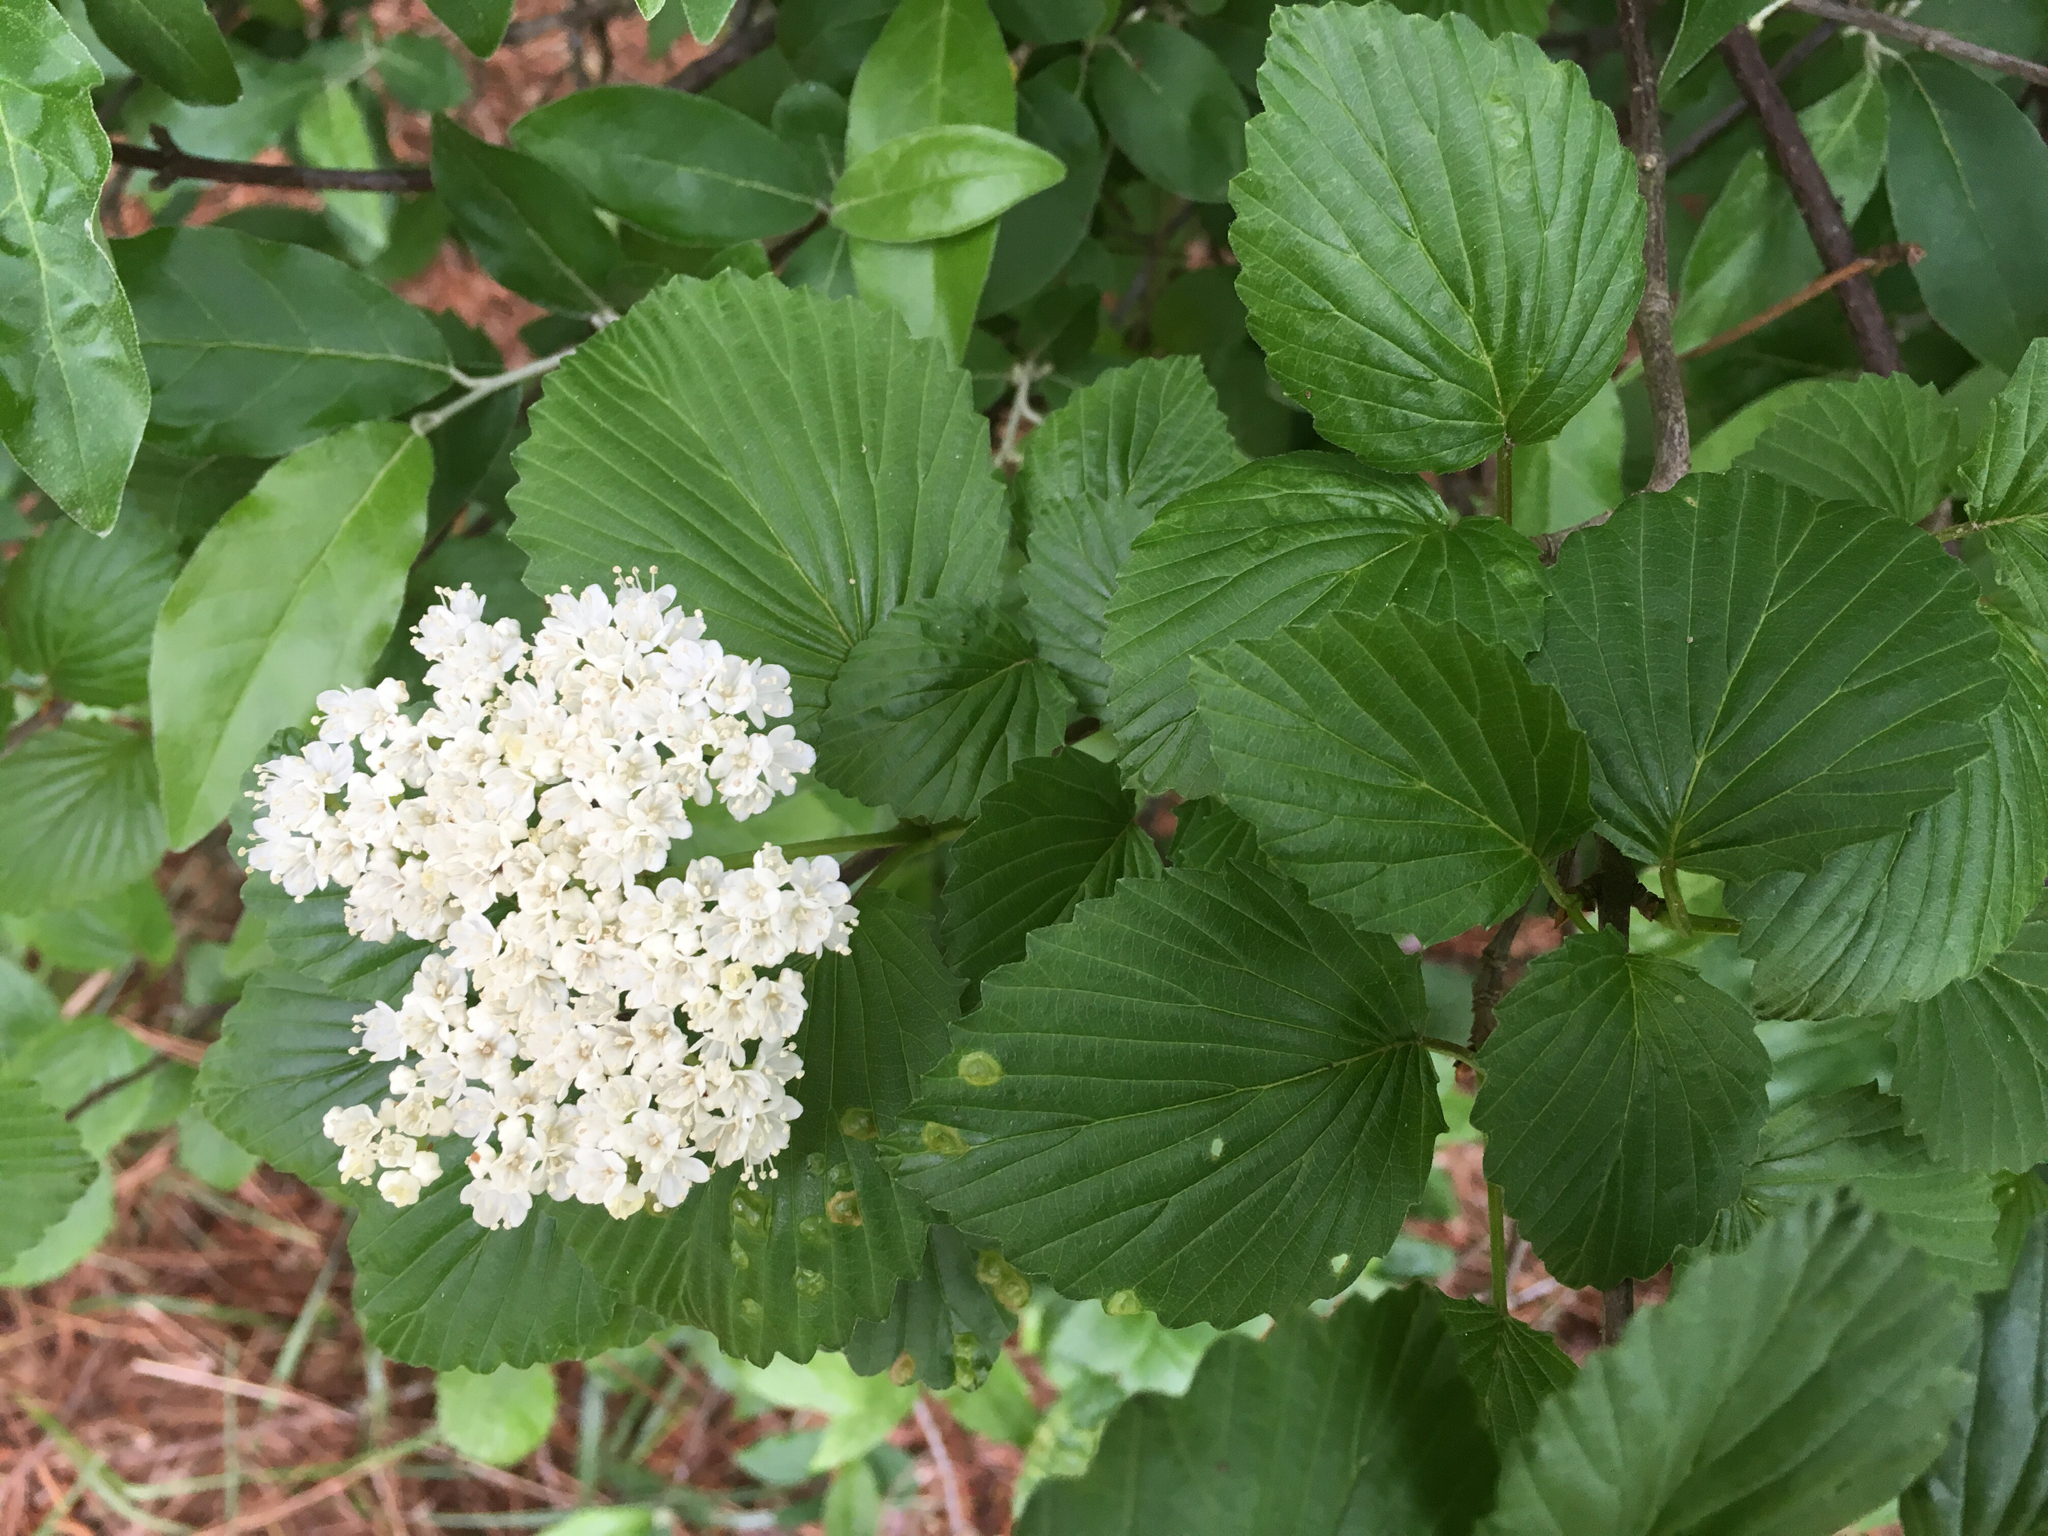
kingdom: Plantae
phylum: Tracheophyta
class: Magnoliopsida
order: Dipsacales
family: Viburnaceae
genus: Viburnum
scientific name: Viburnum recognitum
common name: Northern arrow-wood
